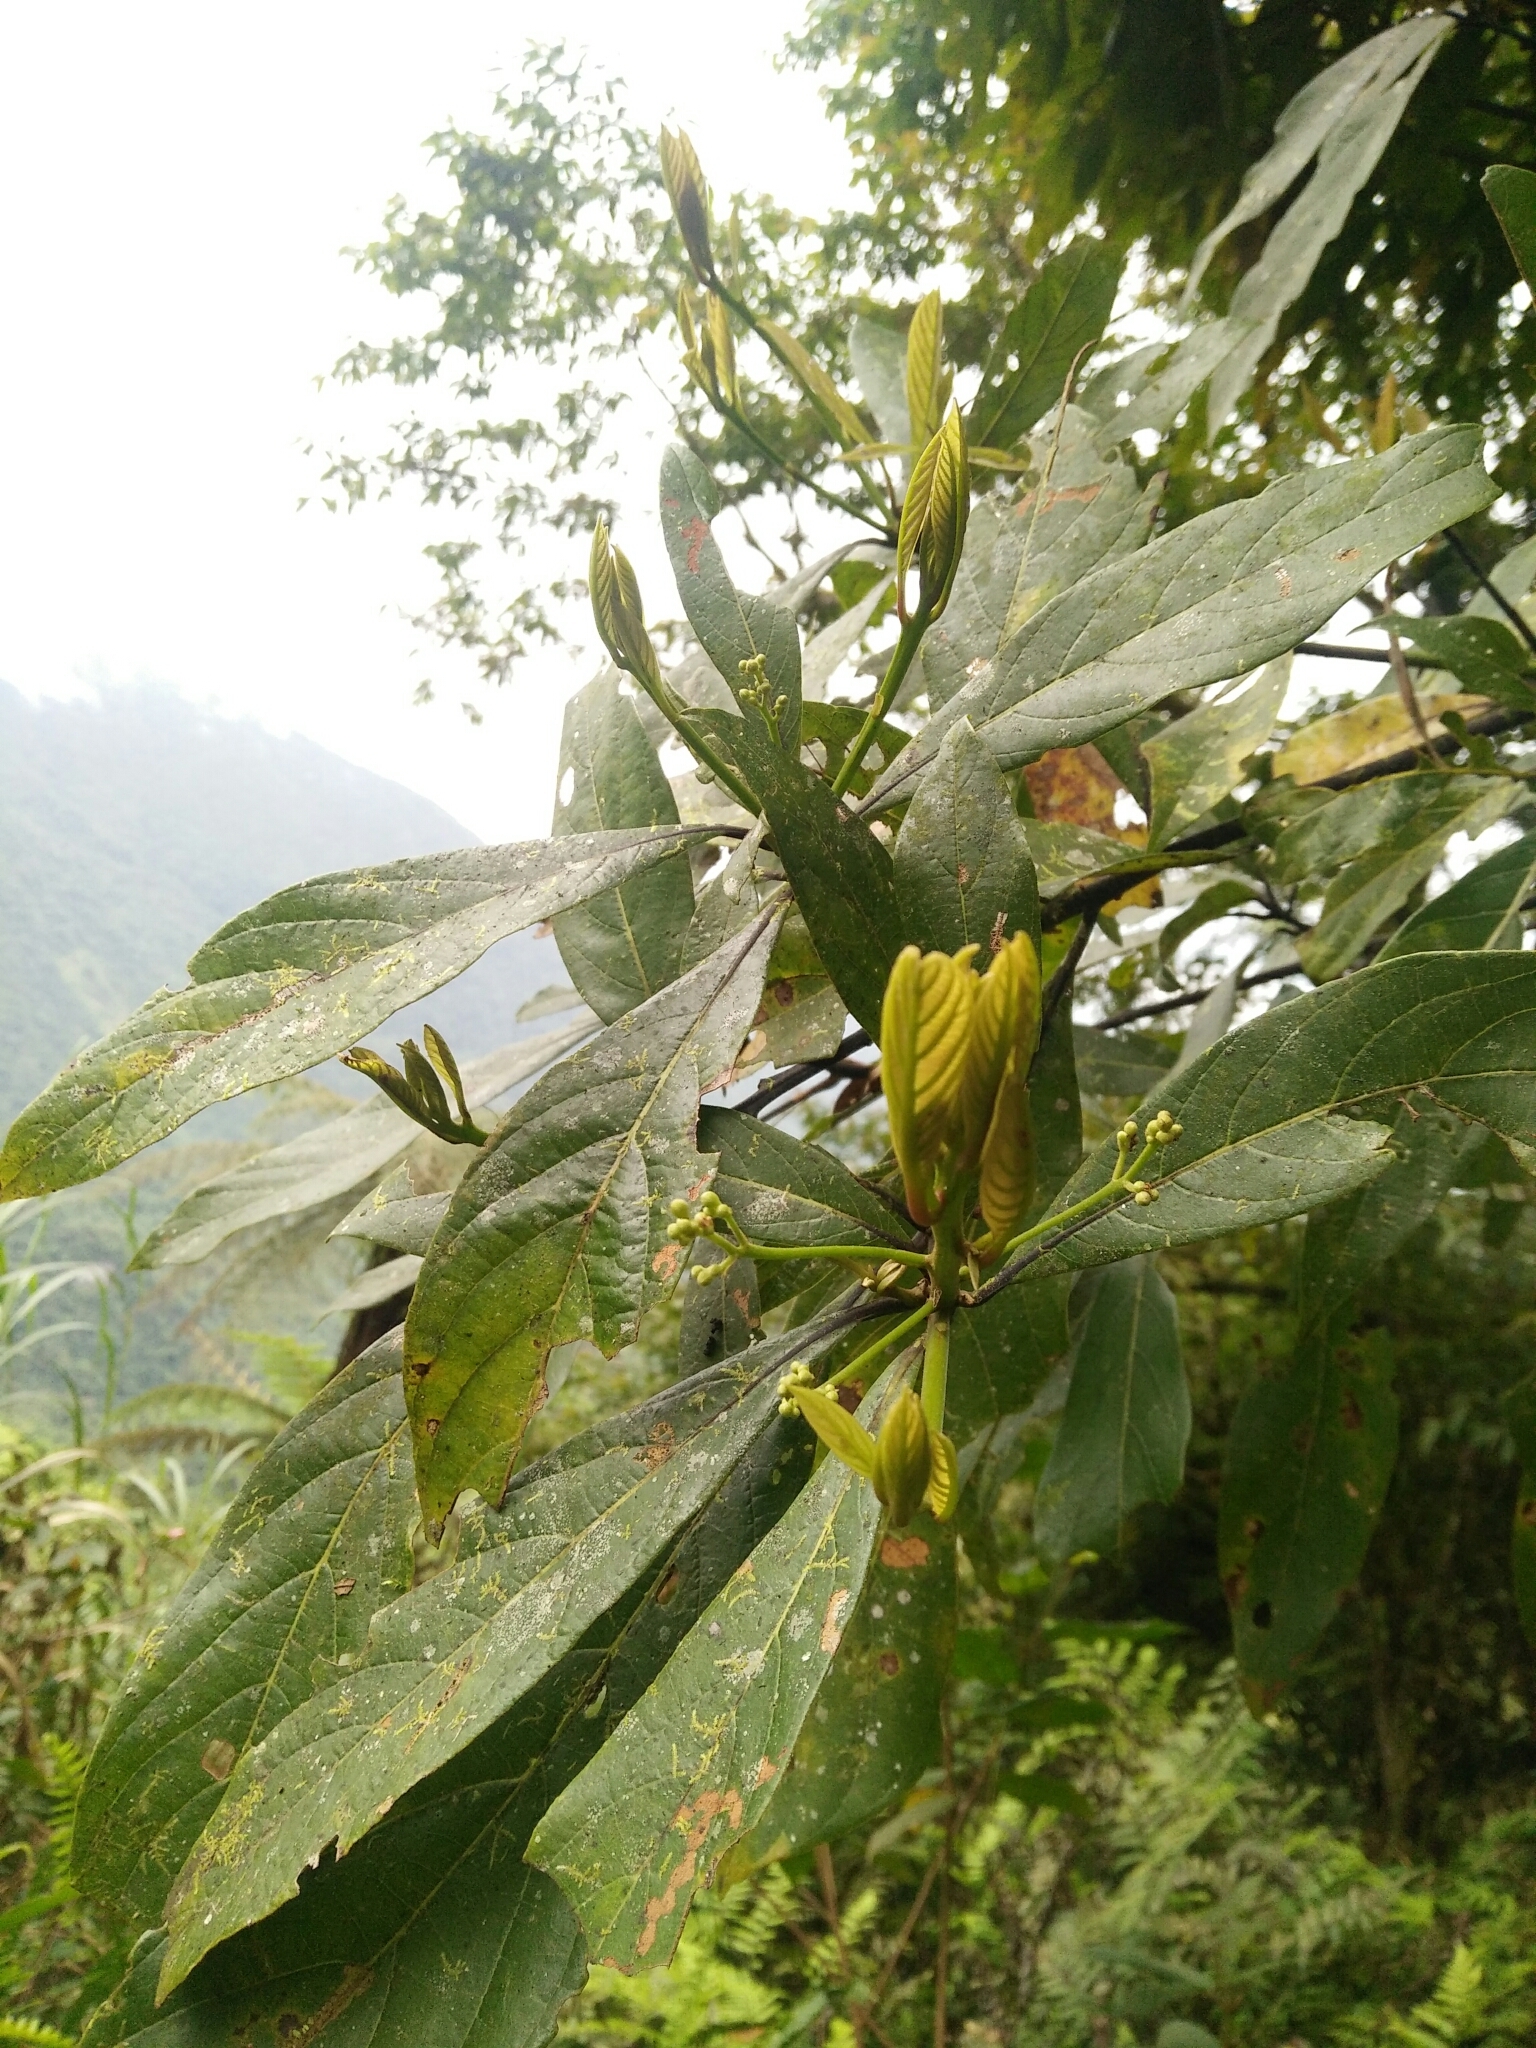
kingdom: Plantae
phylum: Tracheophyta
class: Magnoliopsida
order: Laurales
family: Lauraceae
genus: Phoebe
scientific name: Phoebe formosana
